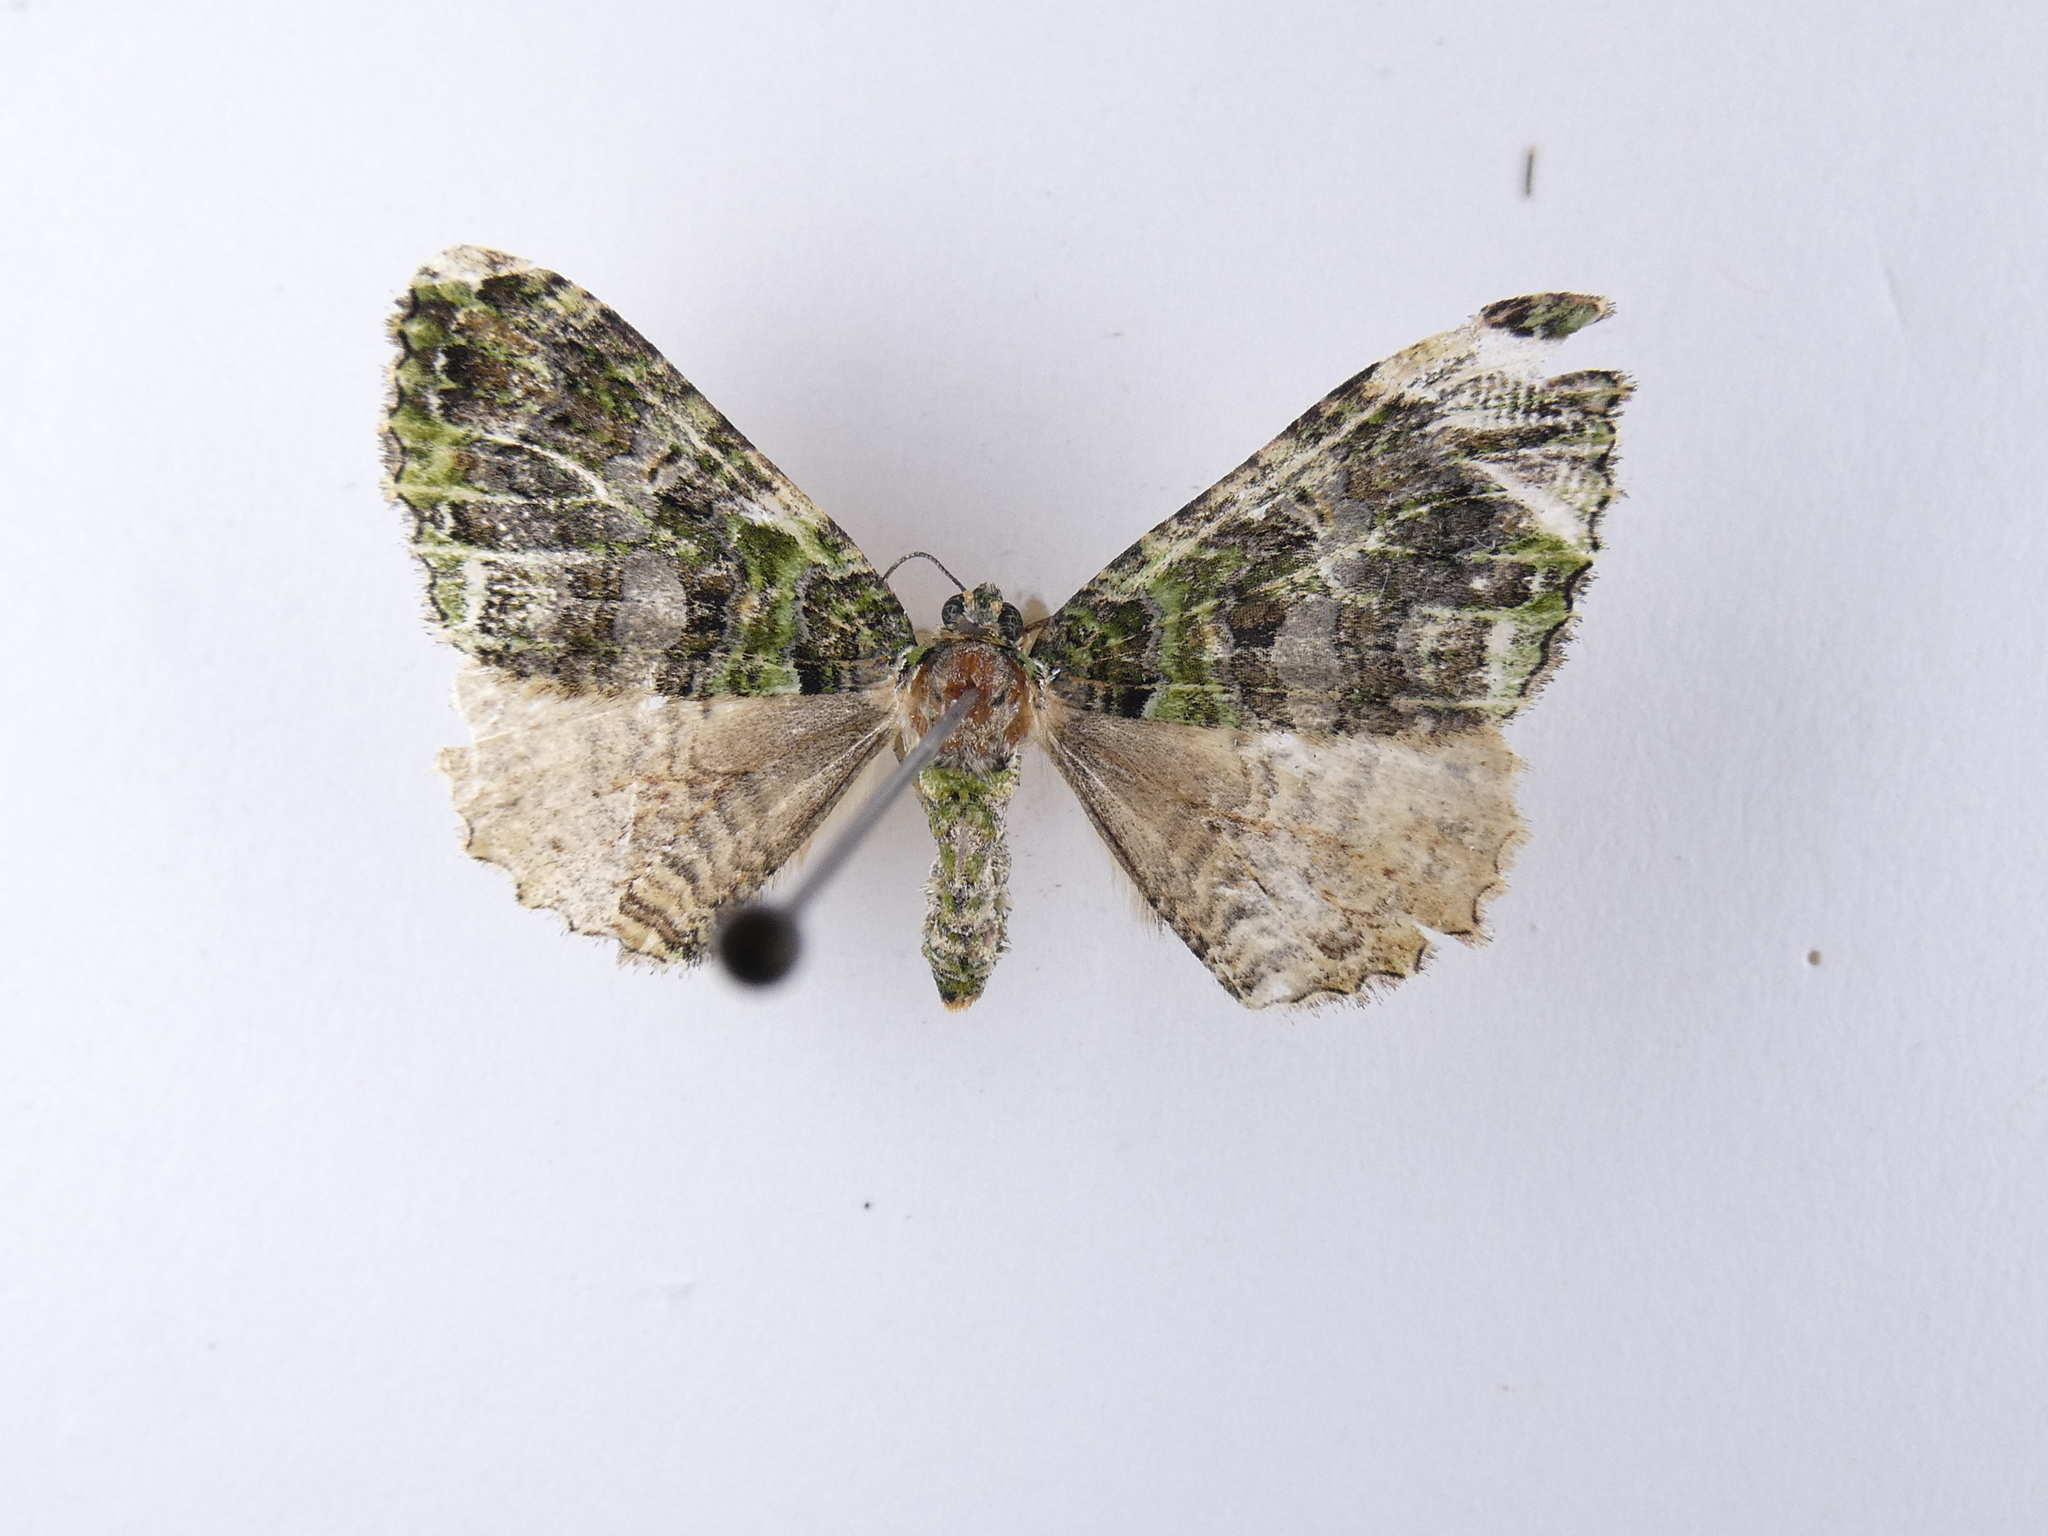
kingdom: Animalia
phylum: Arthropoda
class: Insecta
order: Lepidoptera
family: Geometridae
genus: Austrocidaria
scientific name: Austrocidaria similata
